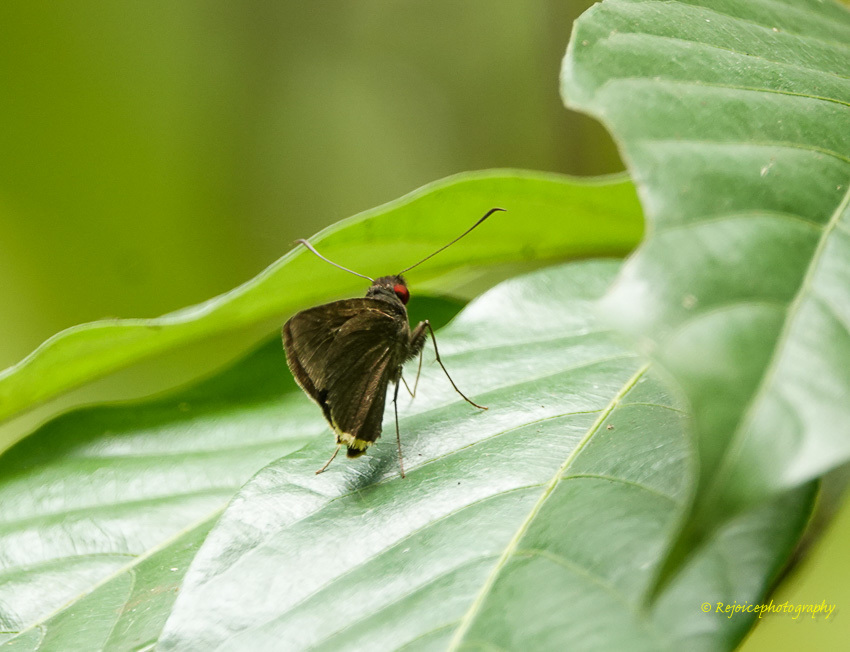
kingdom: Animalia
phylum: Arthropoda
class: Insecta
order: Lepidoptera
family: Hesperiidae
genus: Matapa
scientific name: Matapa sasivarna
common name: Black-veined redeye
